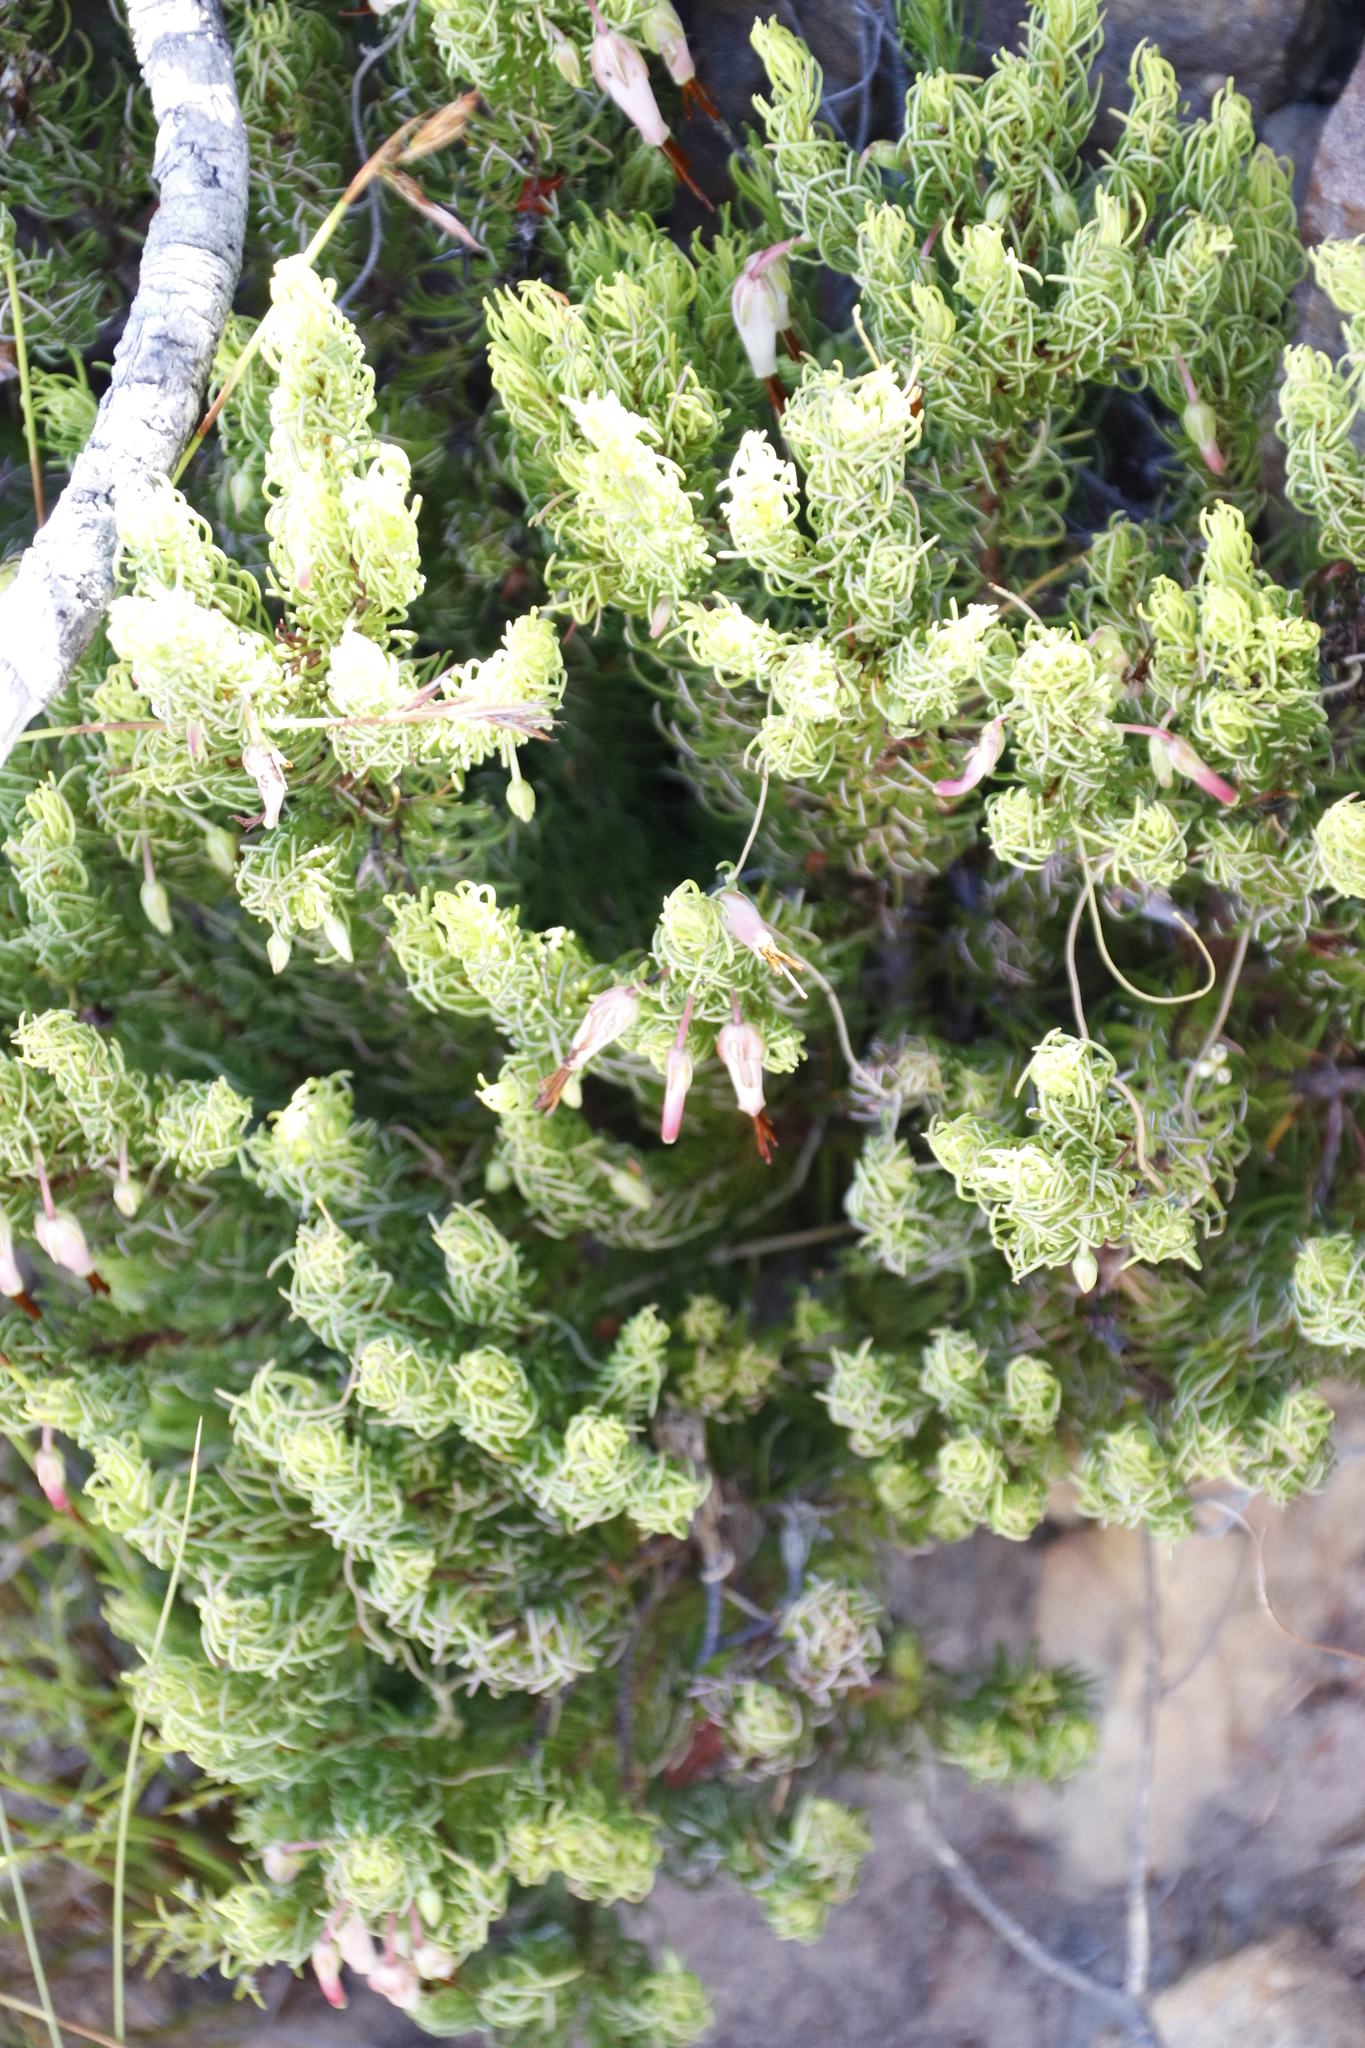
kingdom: Plantae
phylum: Tracheophyta
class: Magnoliopsida
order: Ericales
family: Ericaceae
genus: Erica
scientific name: Erica plukenetii
